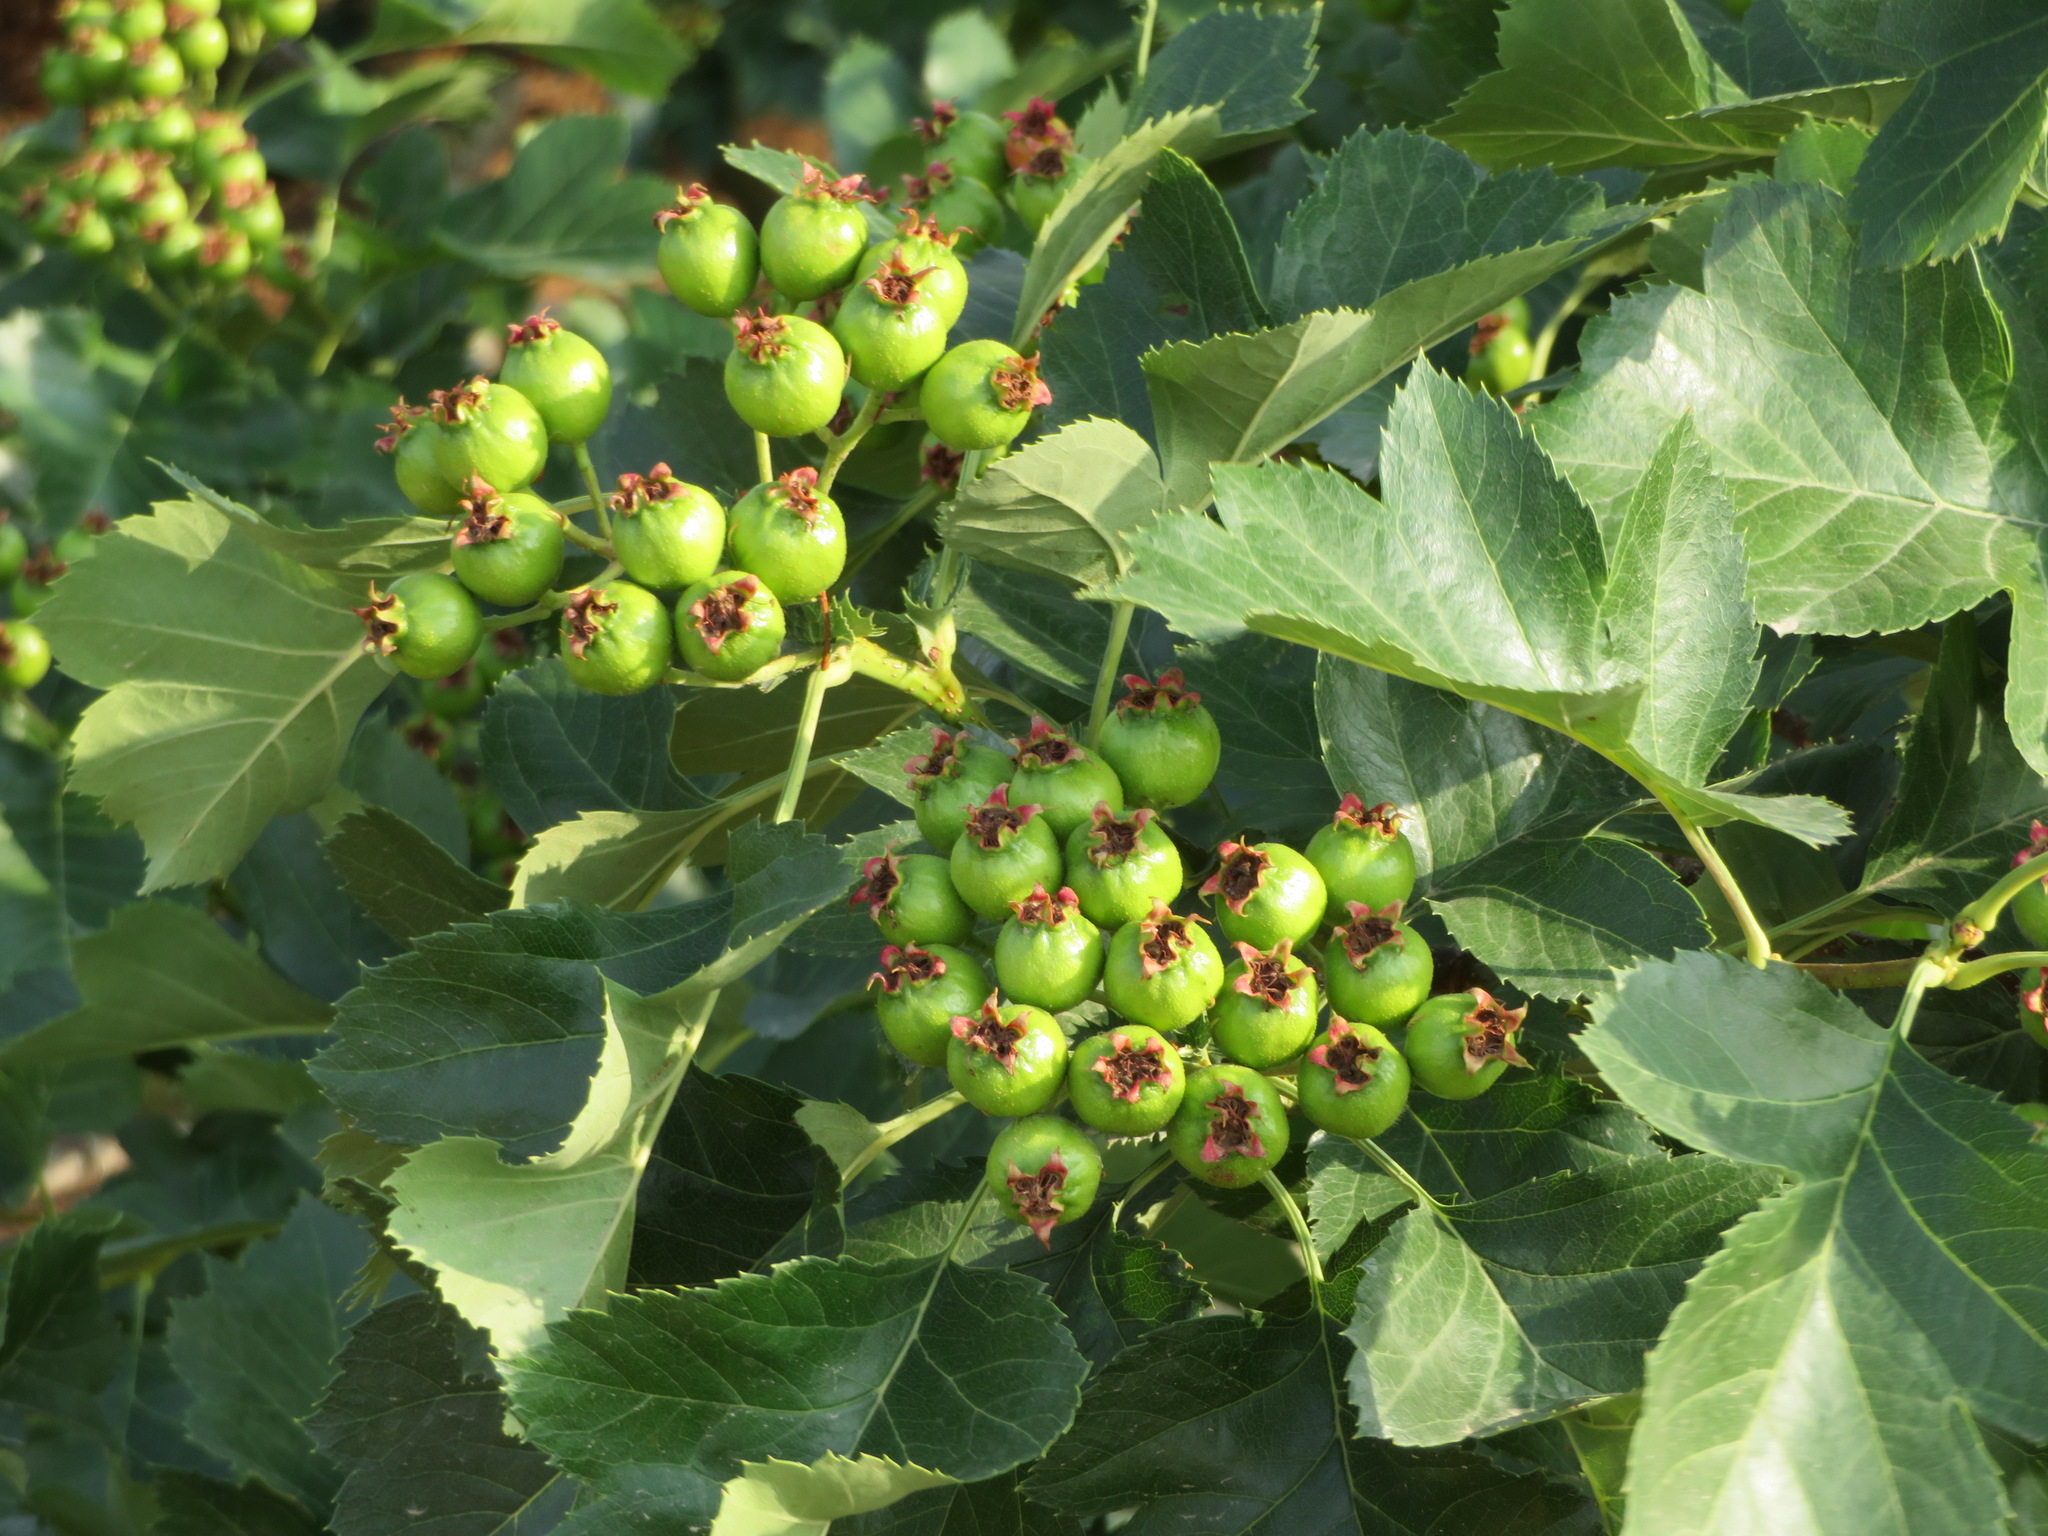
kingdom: Plantae
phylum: Tracheophyta
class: Magnoliopsida
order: Rosales
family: Rosaceae
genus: Crataegus
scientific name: Crataegus pinnatifida
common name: Chinese haw
